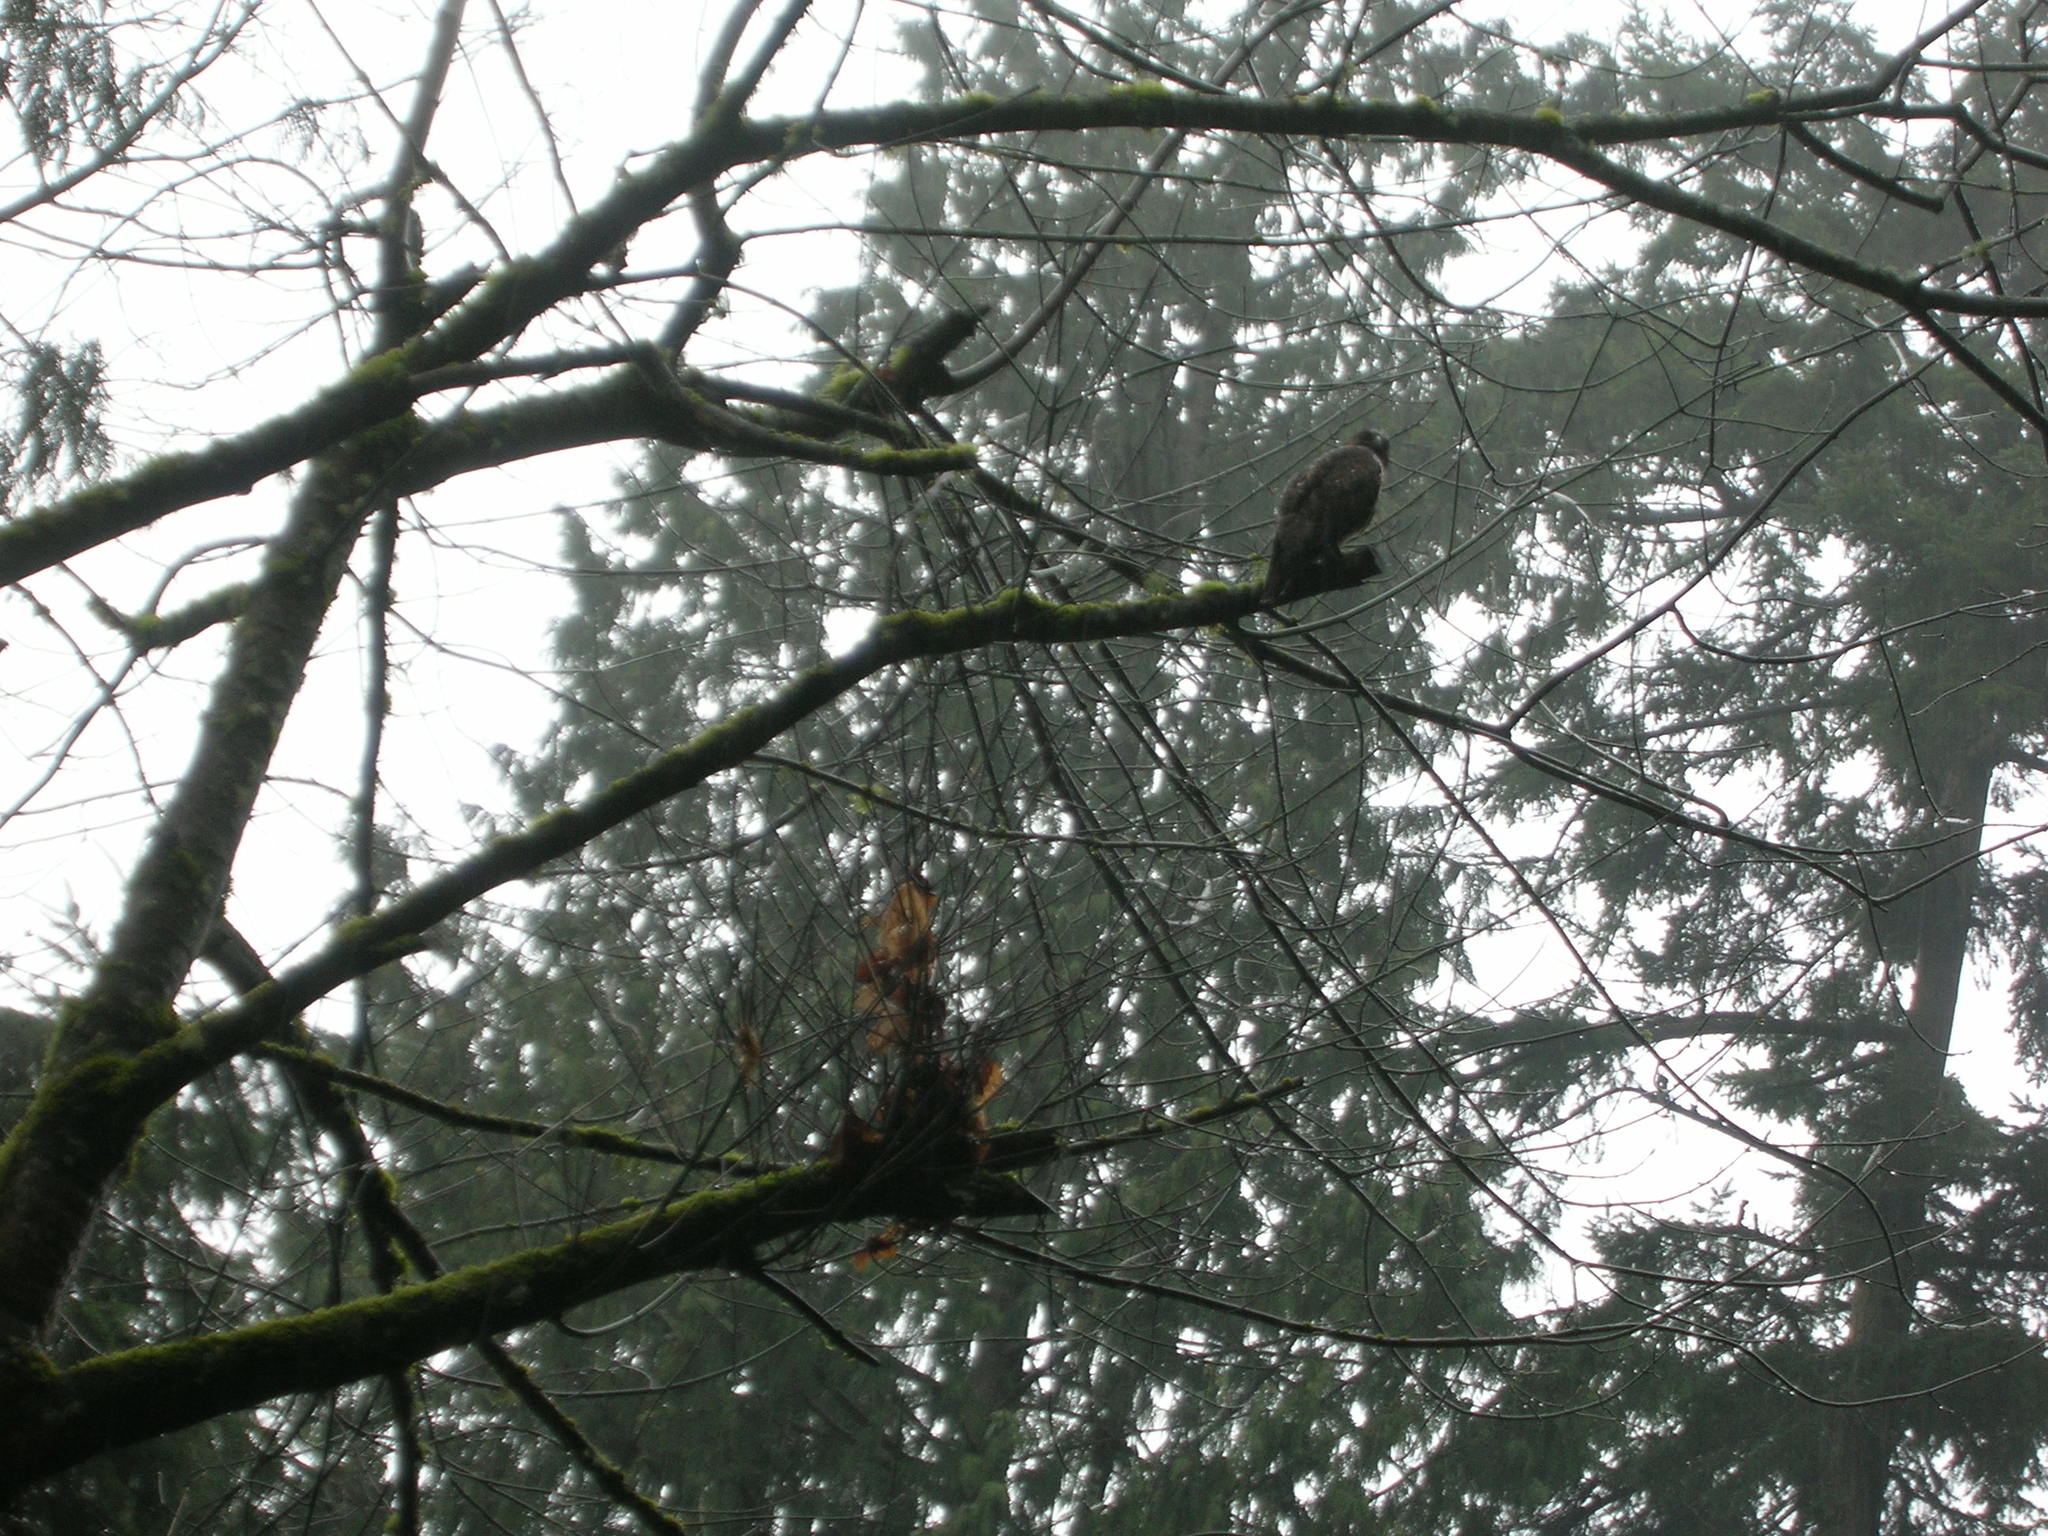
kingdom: Animalia
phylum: Chordata
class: Aves
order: Accipitriformes
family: Accipitridae
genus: Buteo
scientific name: Buteo jamaicensis
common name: Red-tailed hawk
